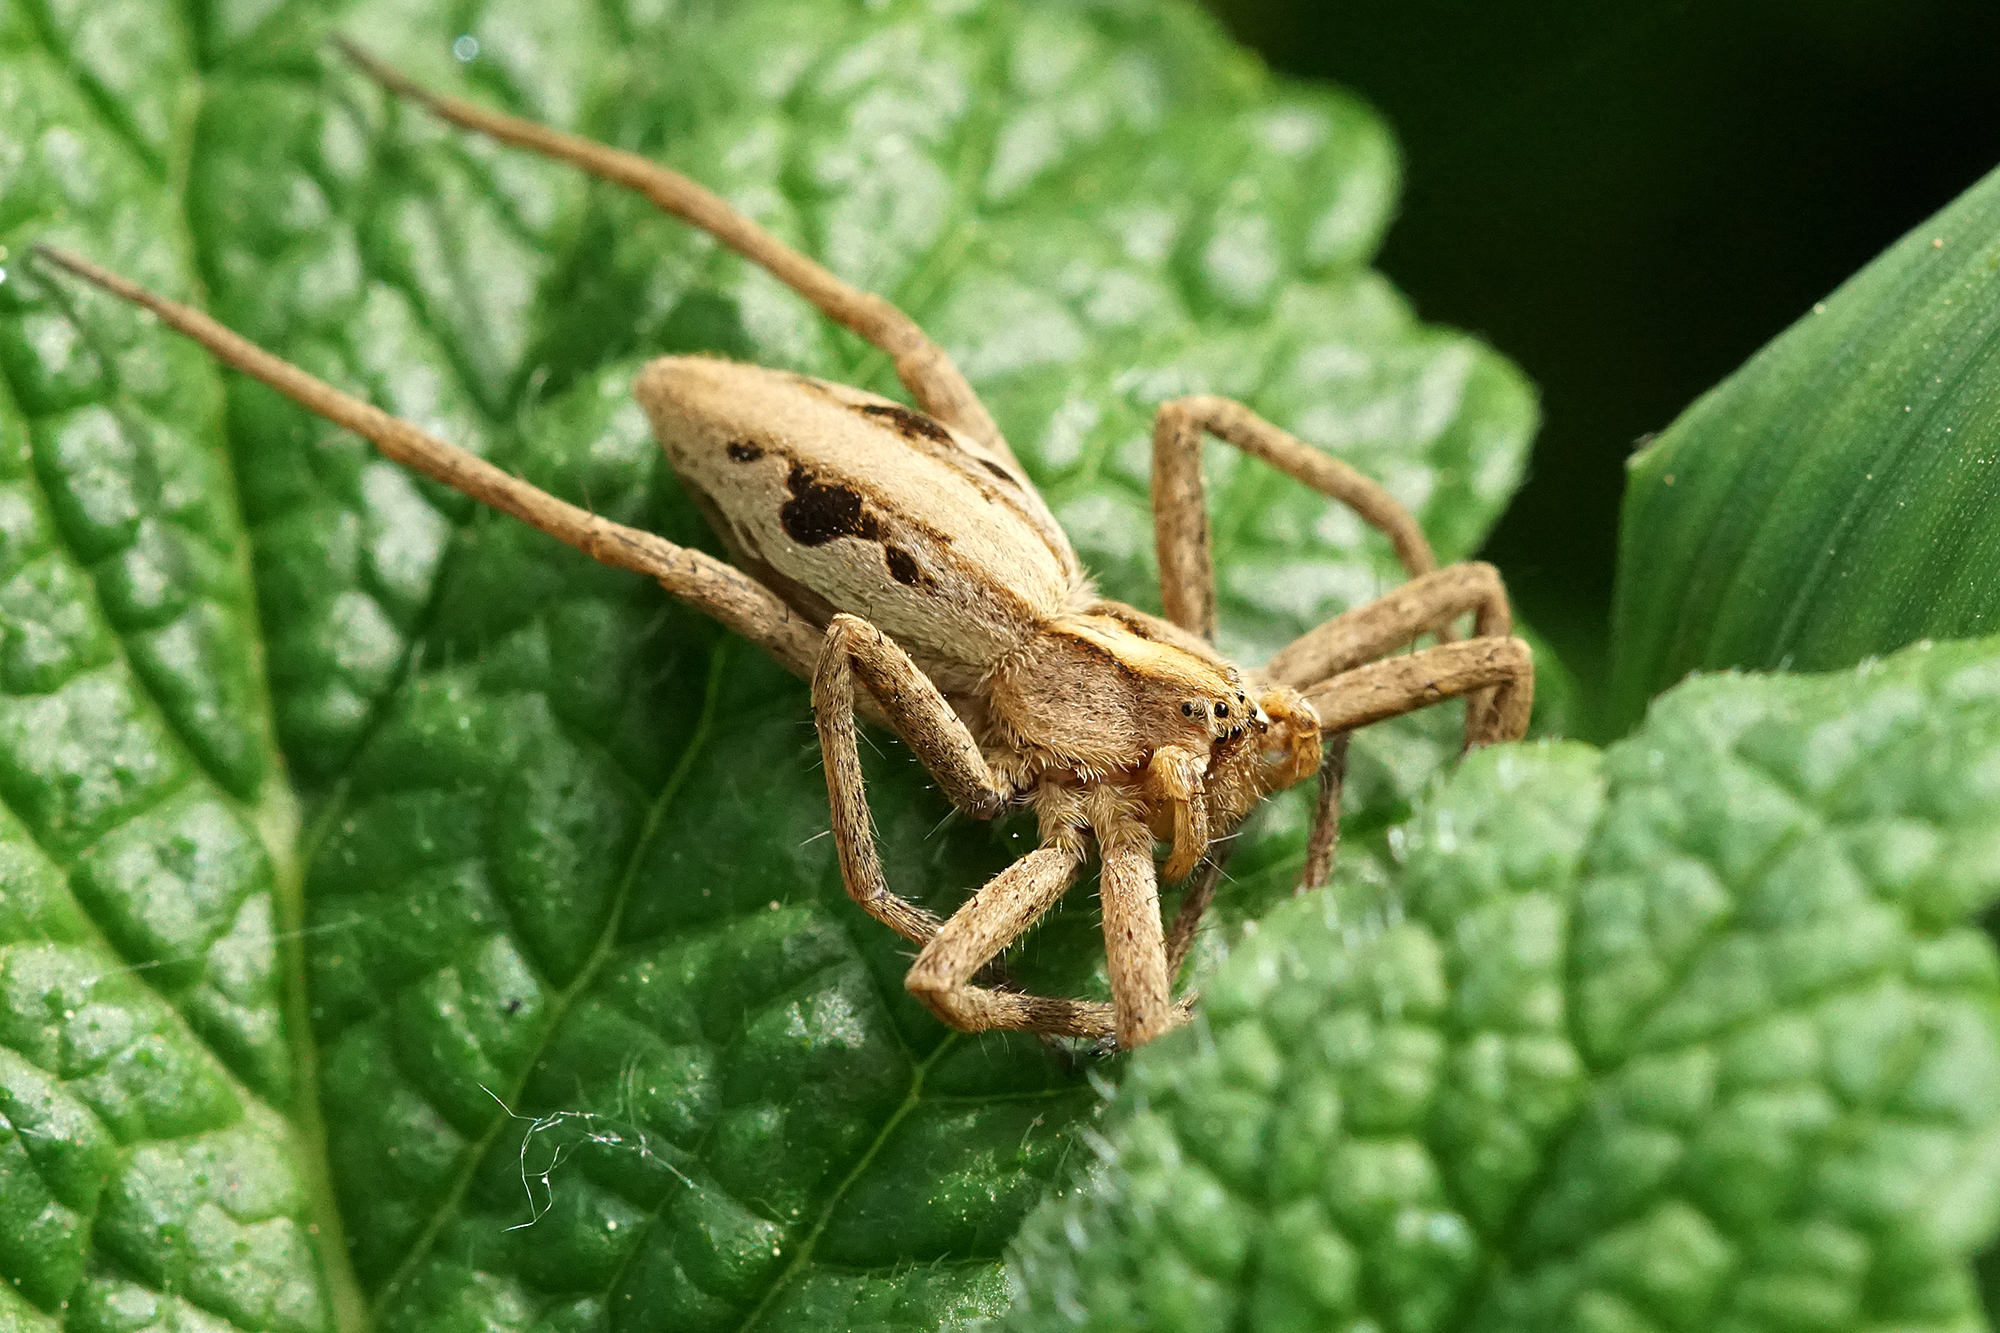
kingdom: Animalia
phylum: Arthropoda
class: Arachnida
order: Araneae
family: Pisauridae
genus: Pisaura
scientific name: Pisaura mirabilis
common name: Tent spider
